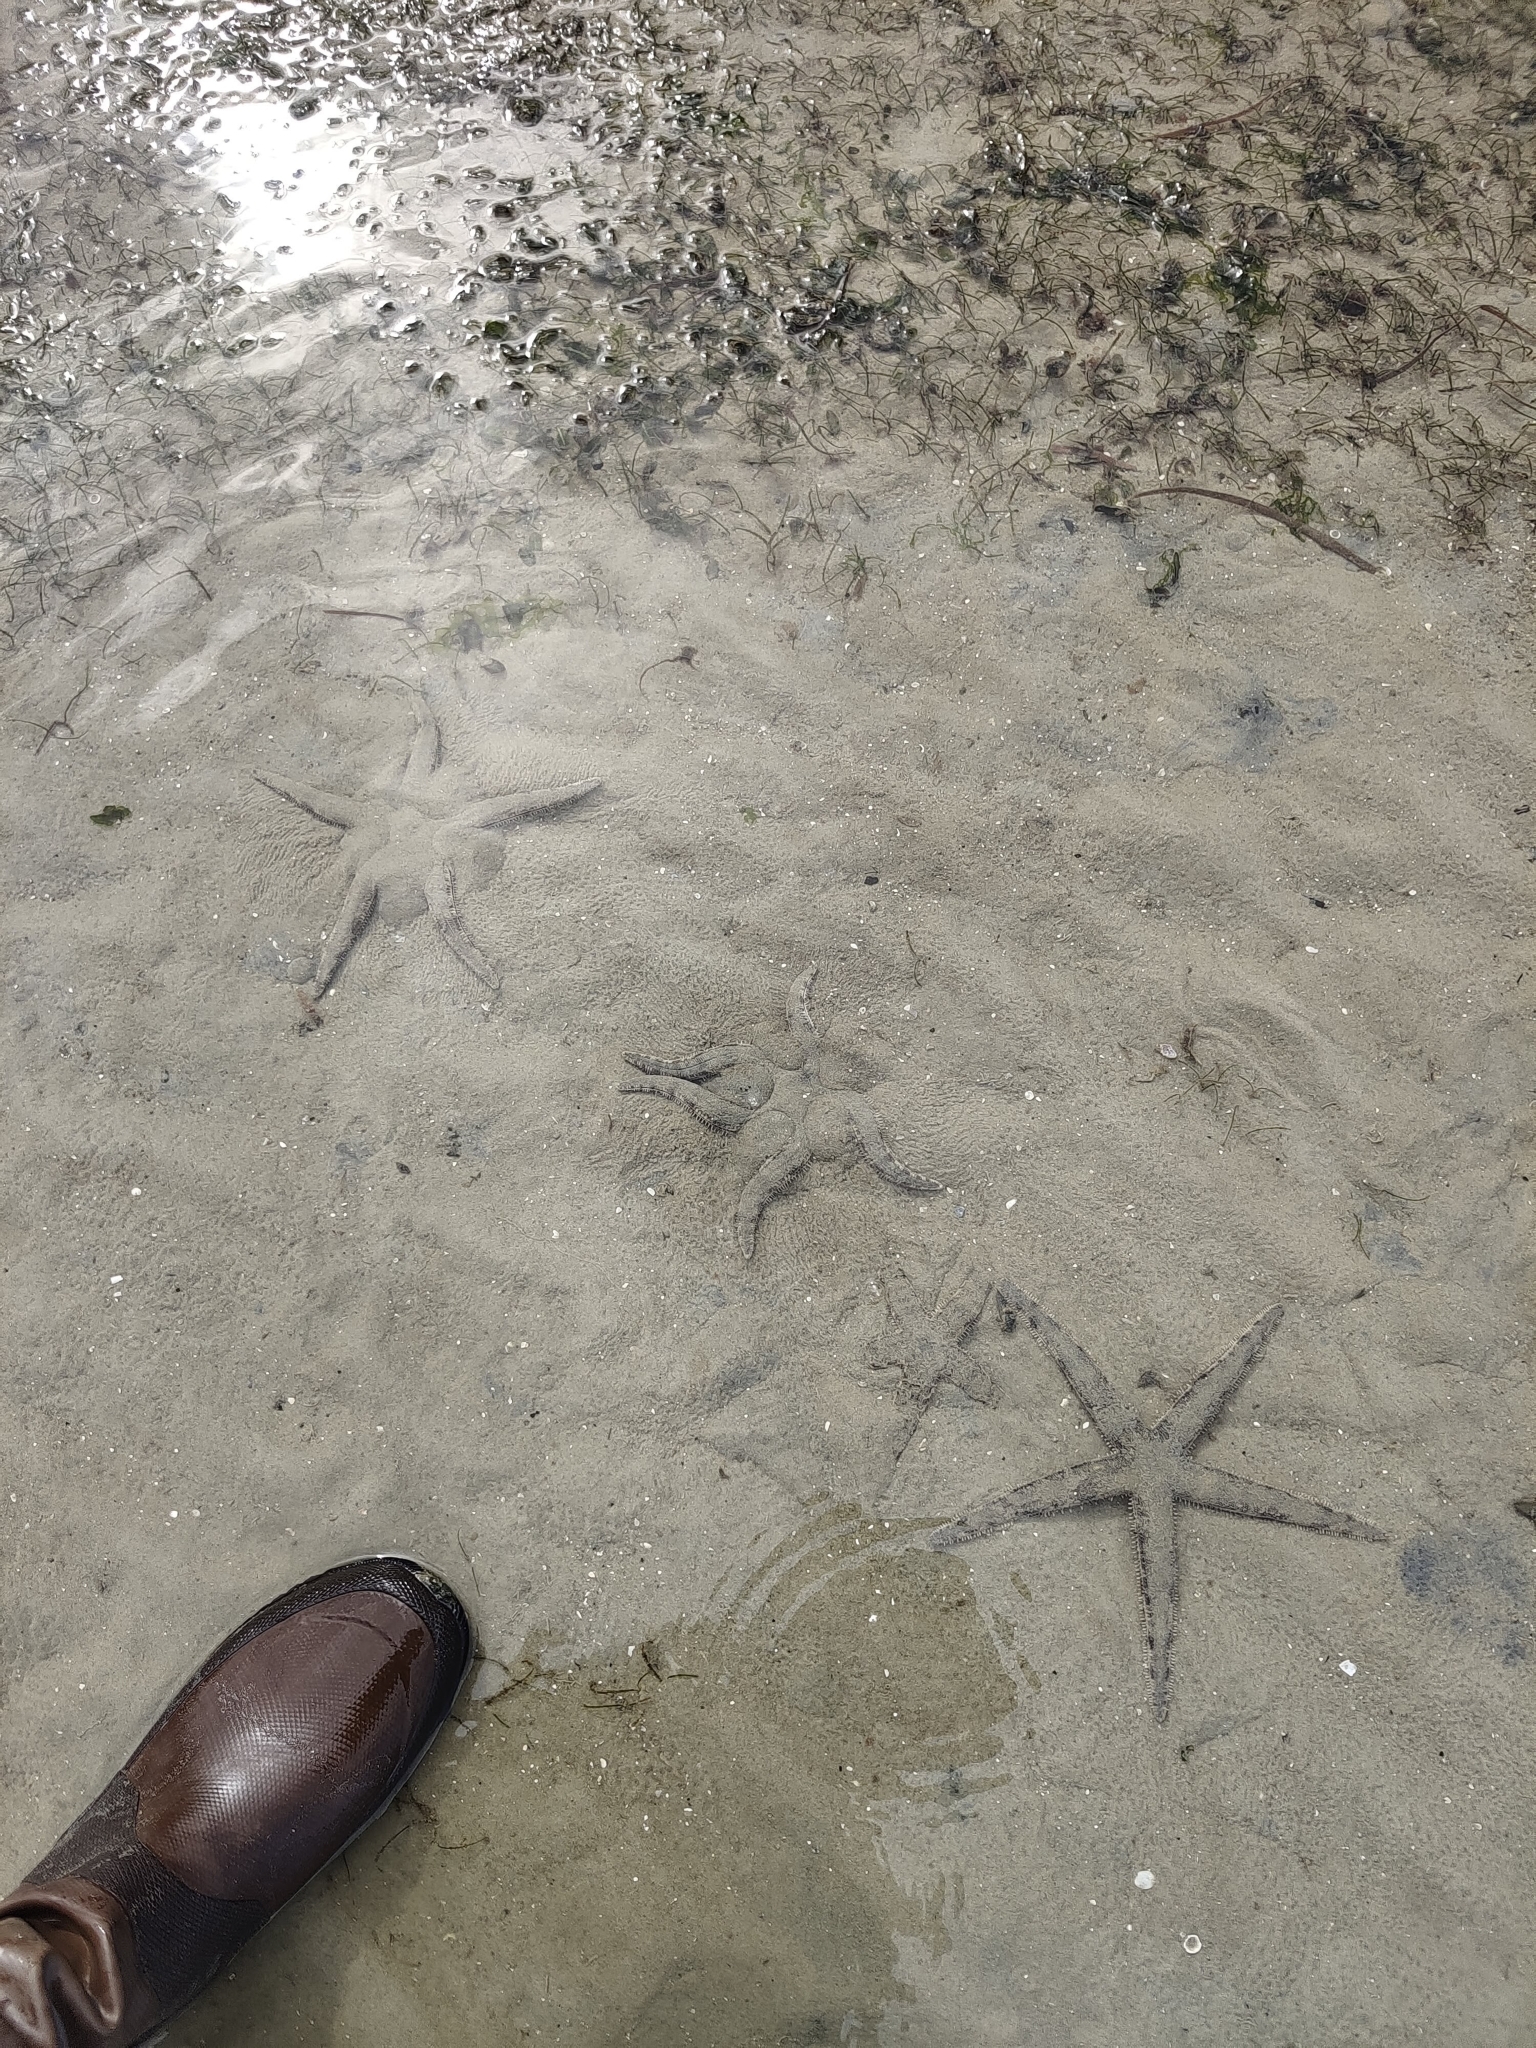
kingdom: Animalia
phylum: Echinodermata
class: Asteroidea
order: Valvatida
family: Archasteridae
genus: Archaster
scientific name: Archaster typicus
